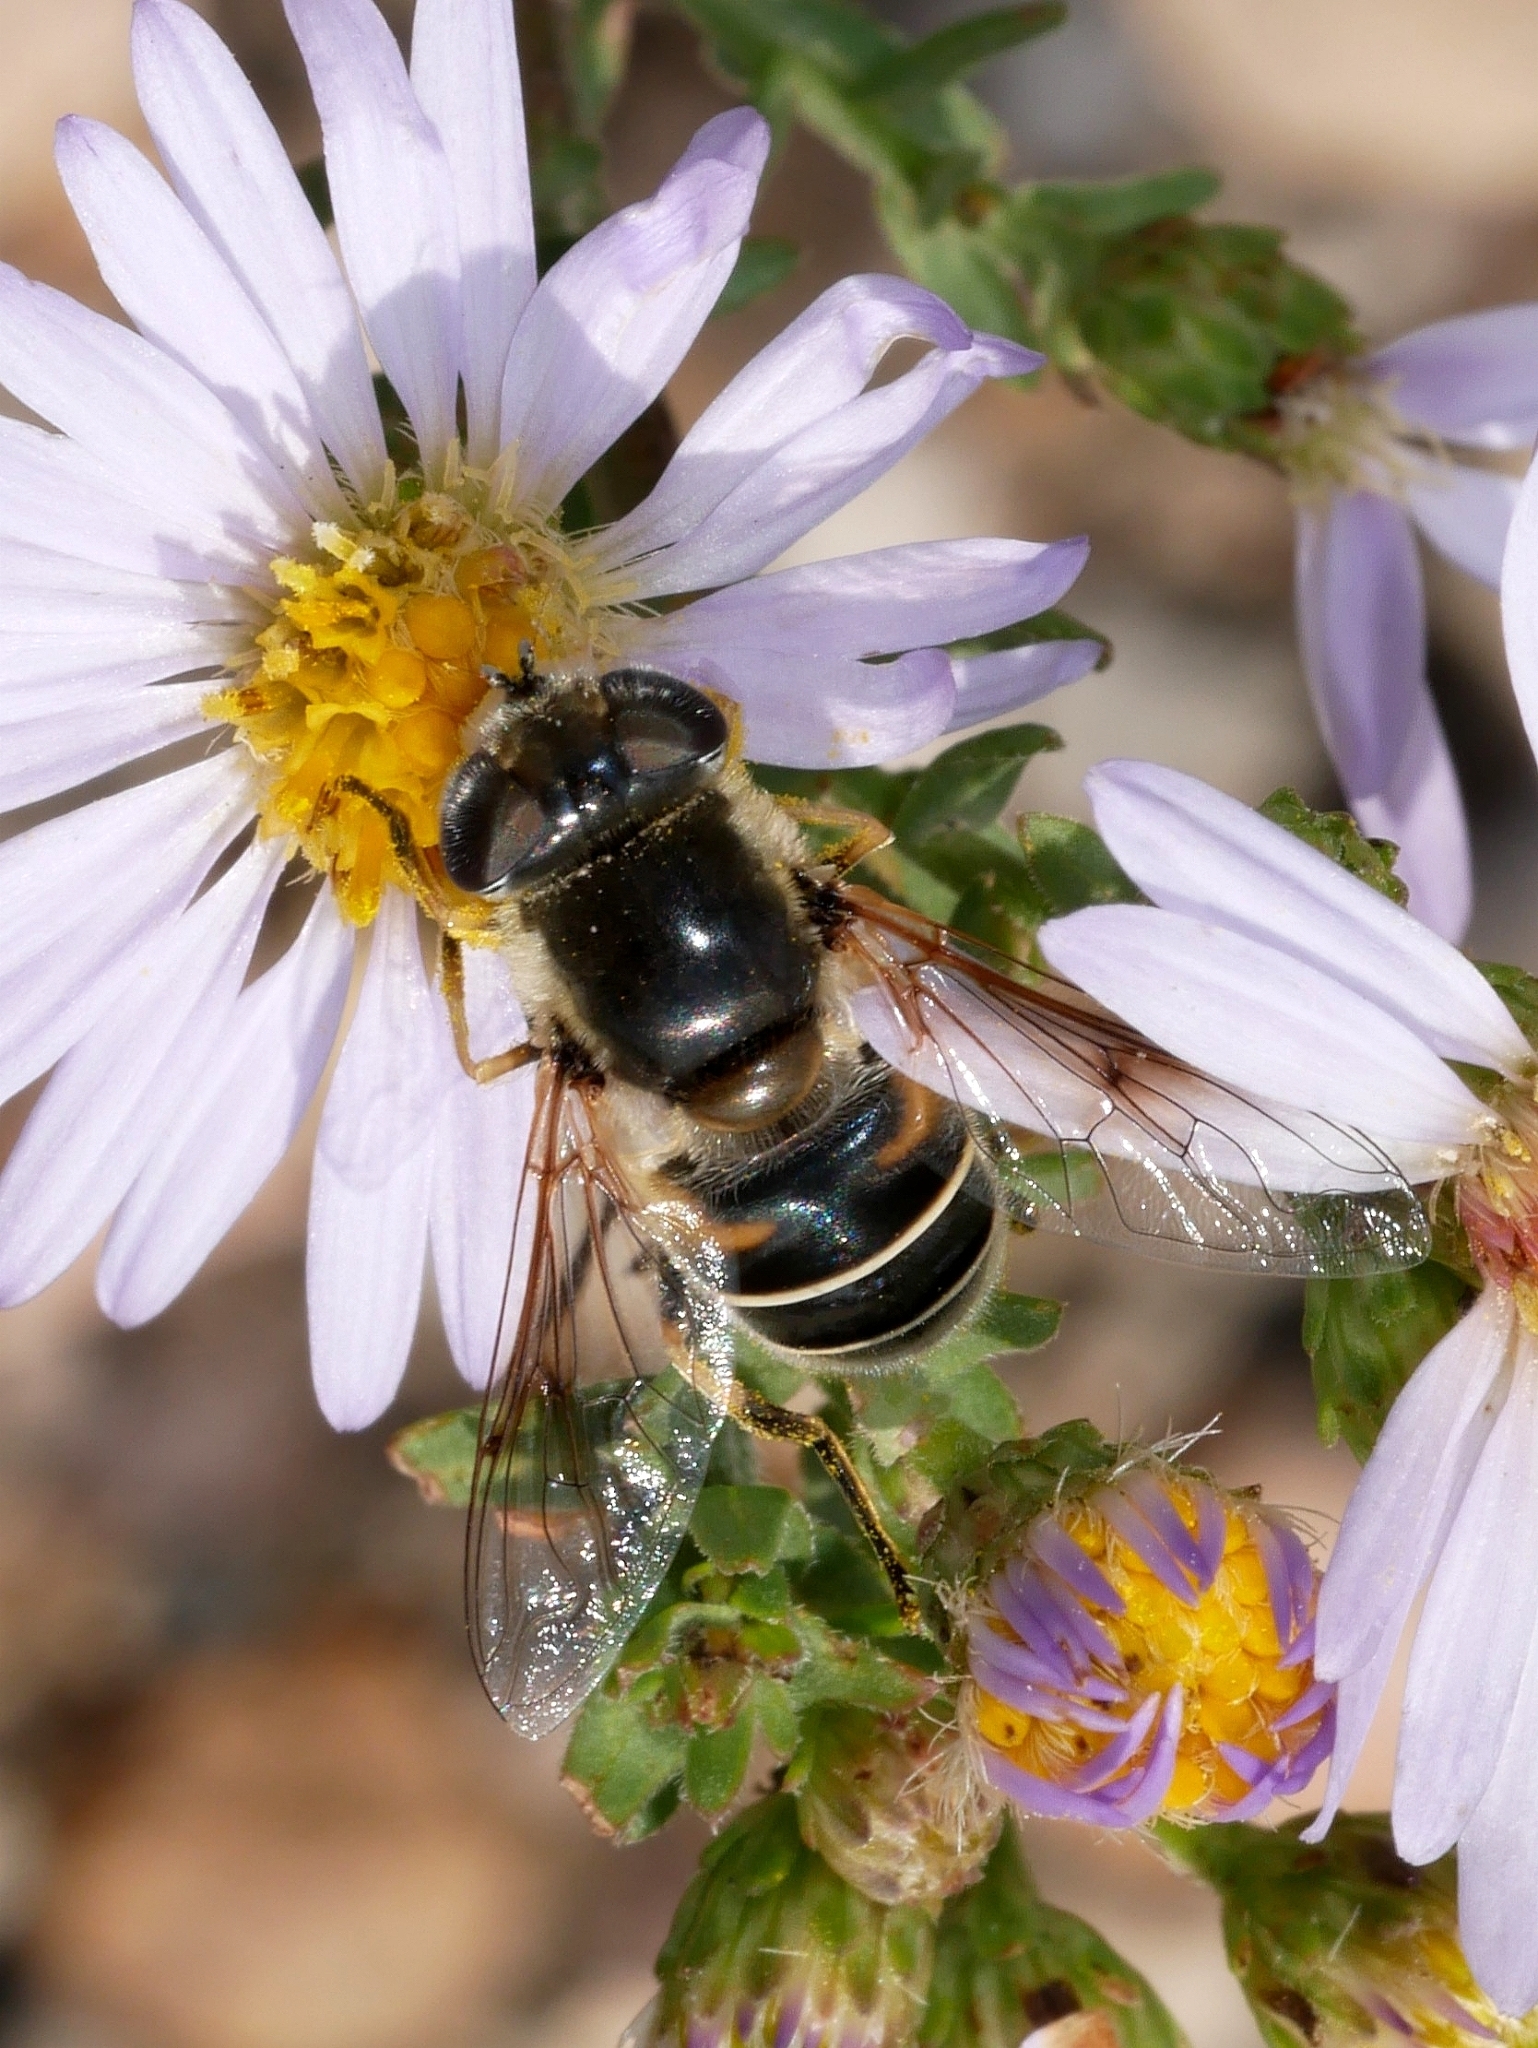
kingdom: Animalia
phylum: Arthropoda
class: Insecta
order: Diptera
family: Syrphidae
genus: Eristalis
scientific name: Eristalis hirta
